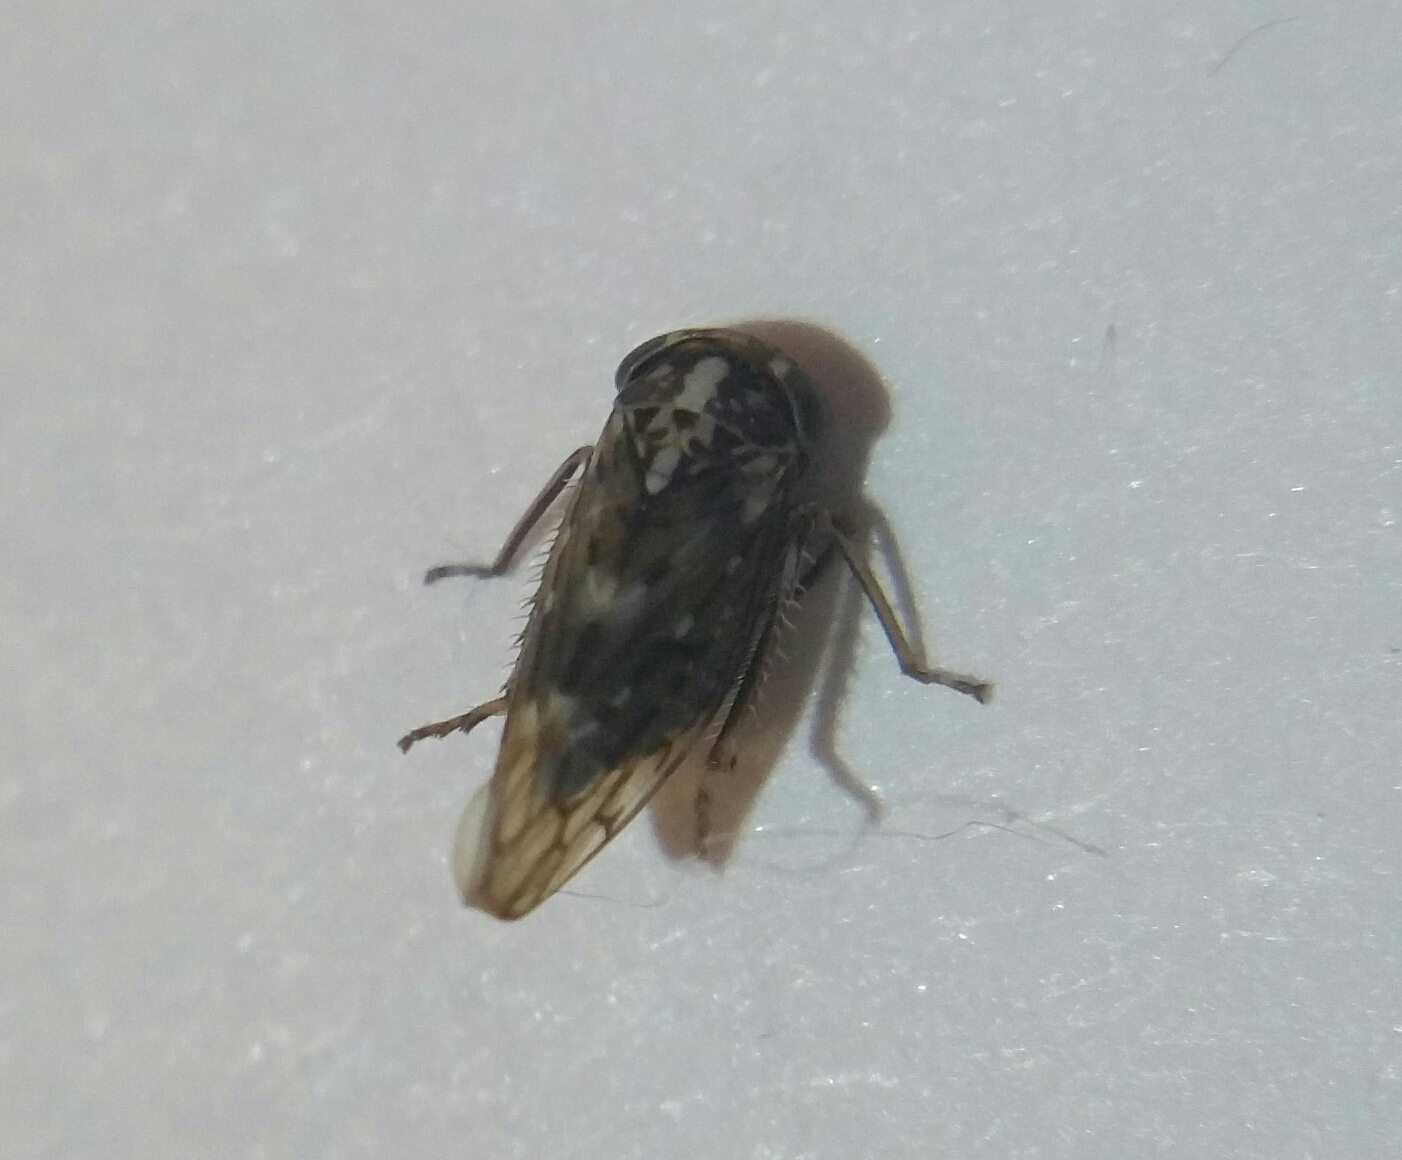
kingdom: Animalia
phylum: Arthropoda
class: Insecta
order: Hemiptera
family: Cicadellidae
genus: Metidiocerus
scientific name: Metidiocerus poecilus
